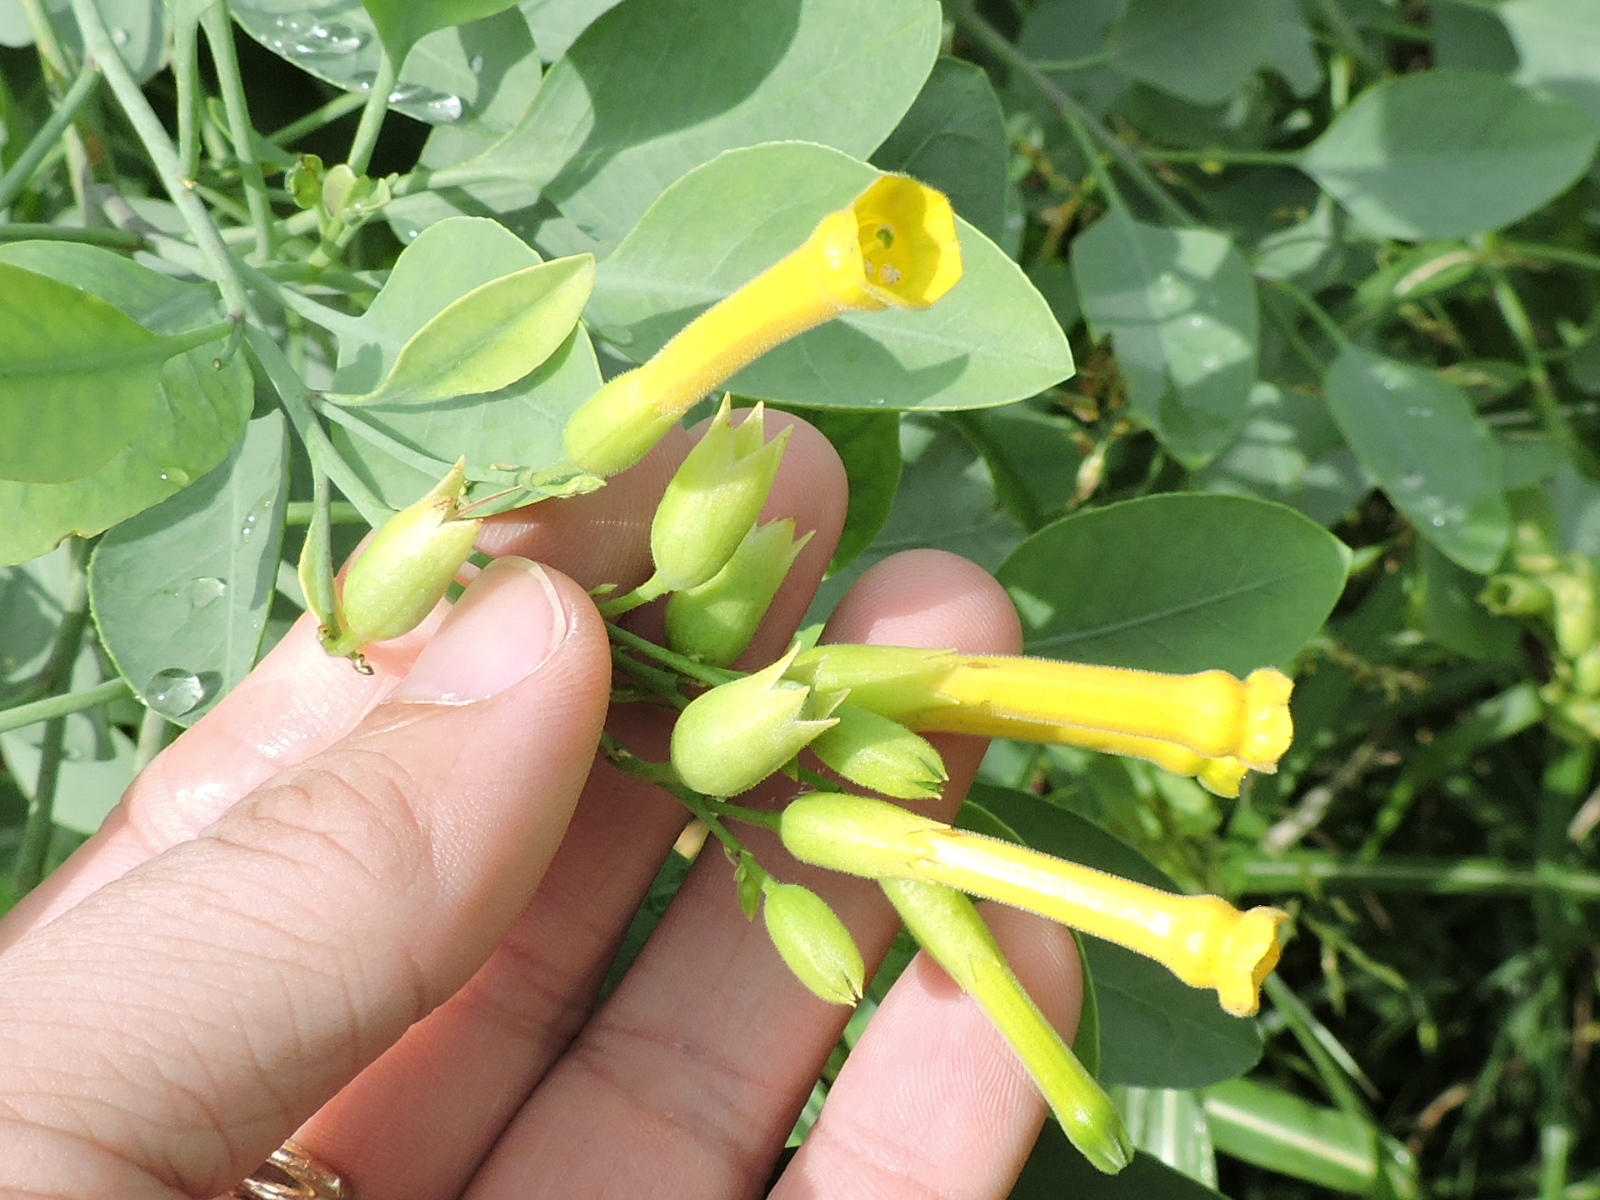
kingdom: Plantae
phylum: Tracheophyta
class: Magnoliopsida
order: Solanales
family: Solanaceae
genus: Nicotiana
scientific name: Nicotiana glauca
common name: Tree tobacco
